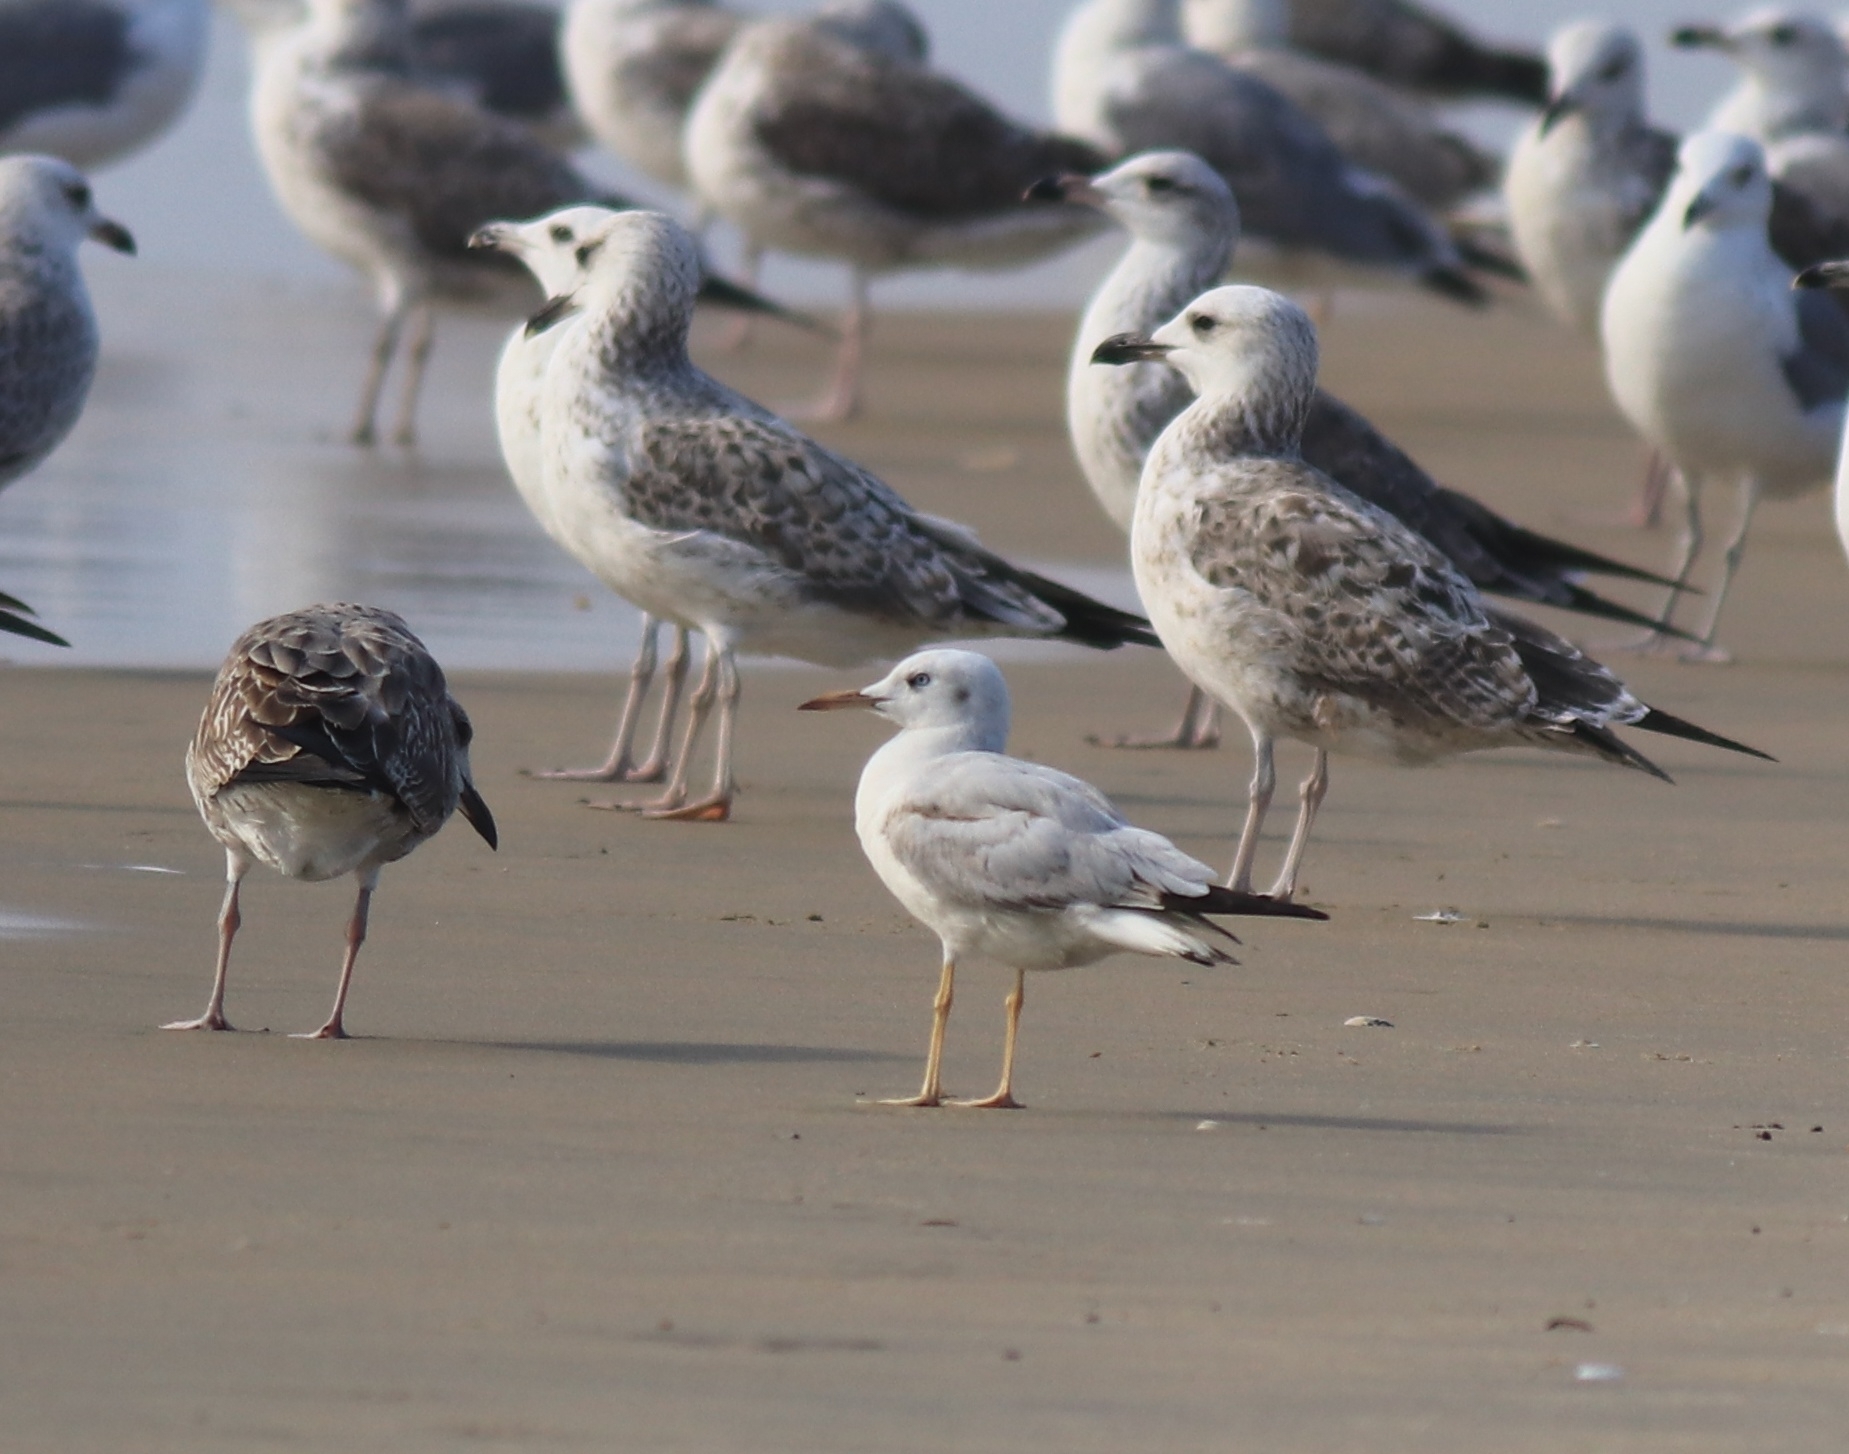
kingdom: Animalia
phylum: Chordata
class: Aves
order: Charadriiformes
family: Laridae
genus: Chroicocephalus
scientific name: Chroicocephalus genei
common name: Slender-billed gull
